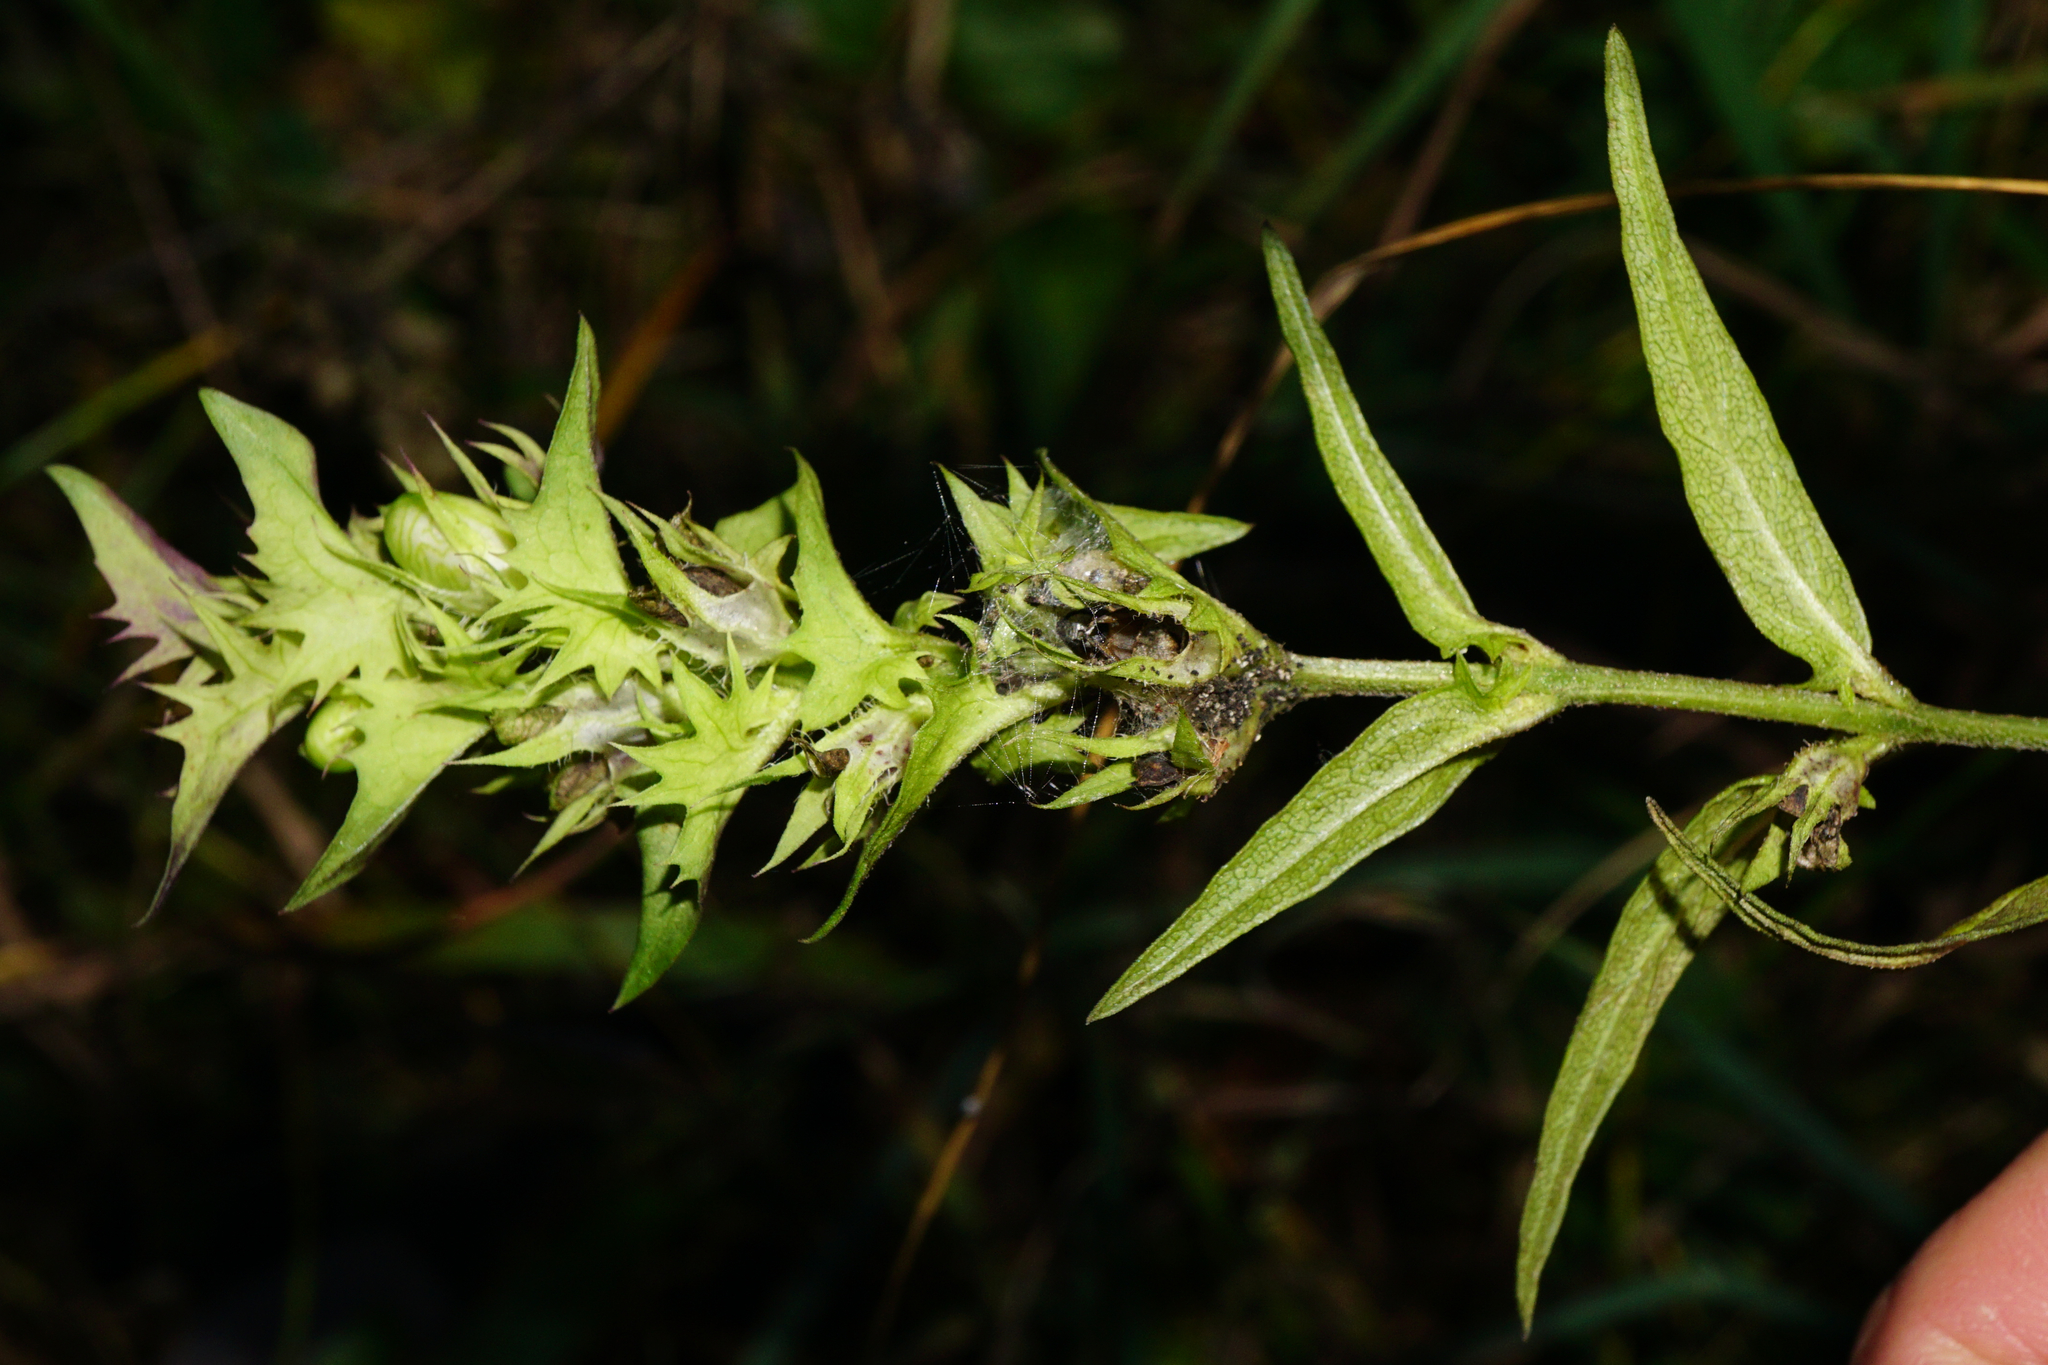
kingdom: Plantae
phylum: Tracheophyta
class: Magnoliopsida
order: Lamiales
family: Orobanchaceae
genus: Melampyrum
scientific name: Melampyrum subalpinum
